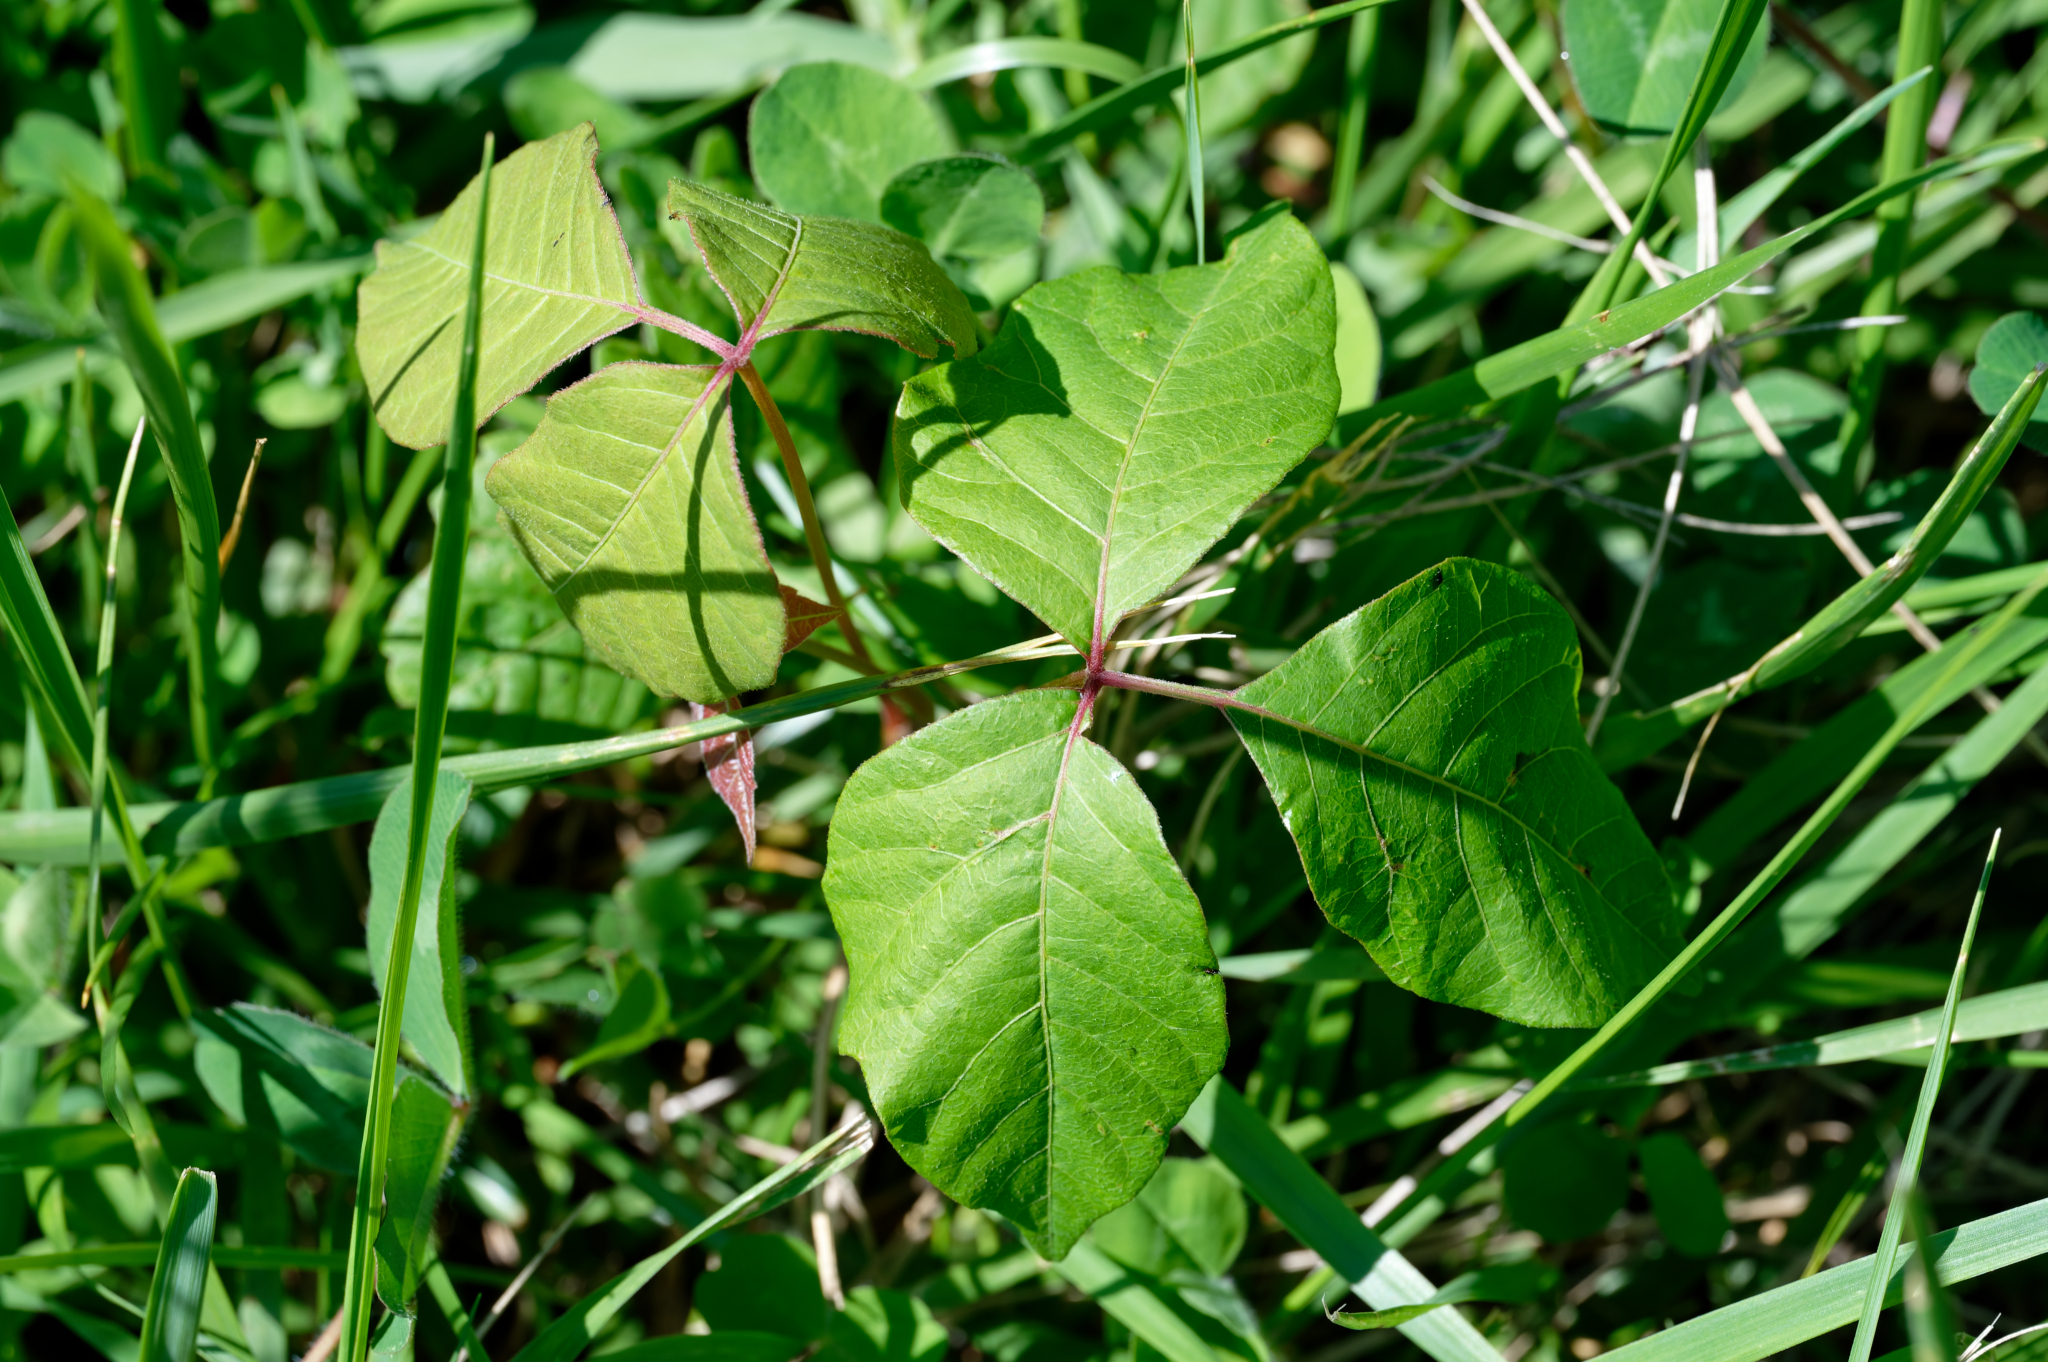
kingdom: Plantae
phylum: Tracheophyta
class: Magnoliopsida
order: Sapindales
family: Anacardiaceae
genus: Toxicodendron
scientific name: Toxicodendron radicans
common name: Poison ivy
